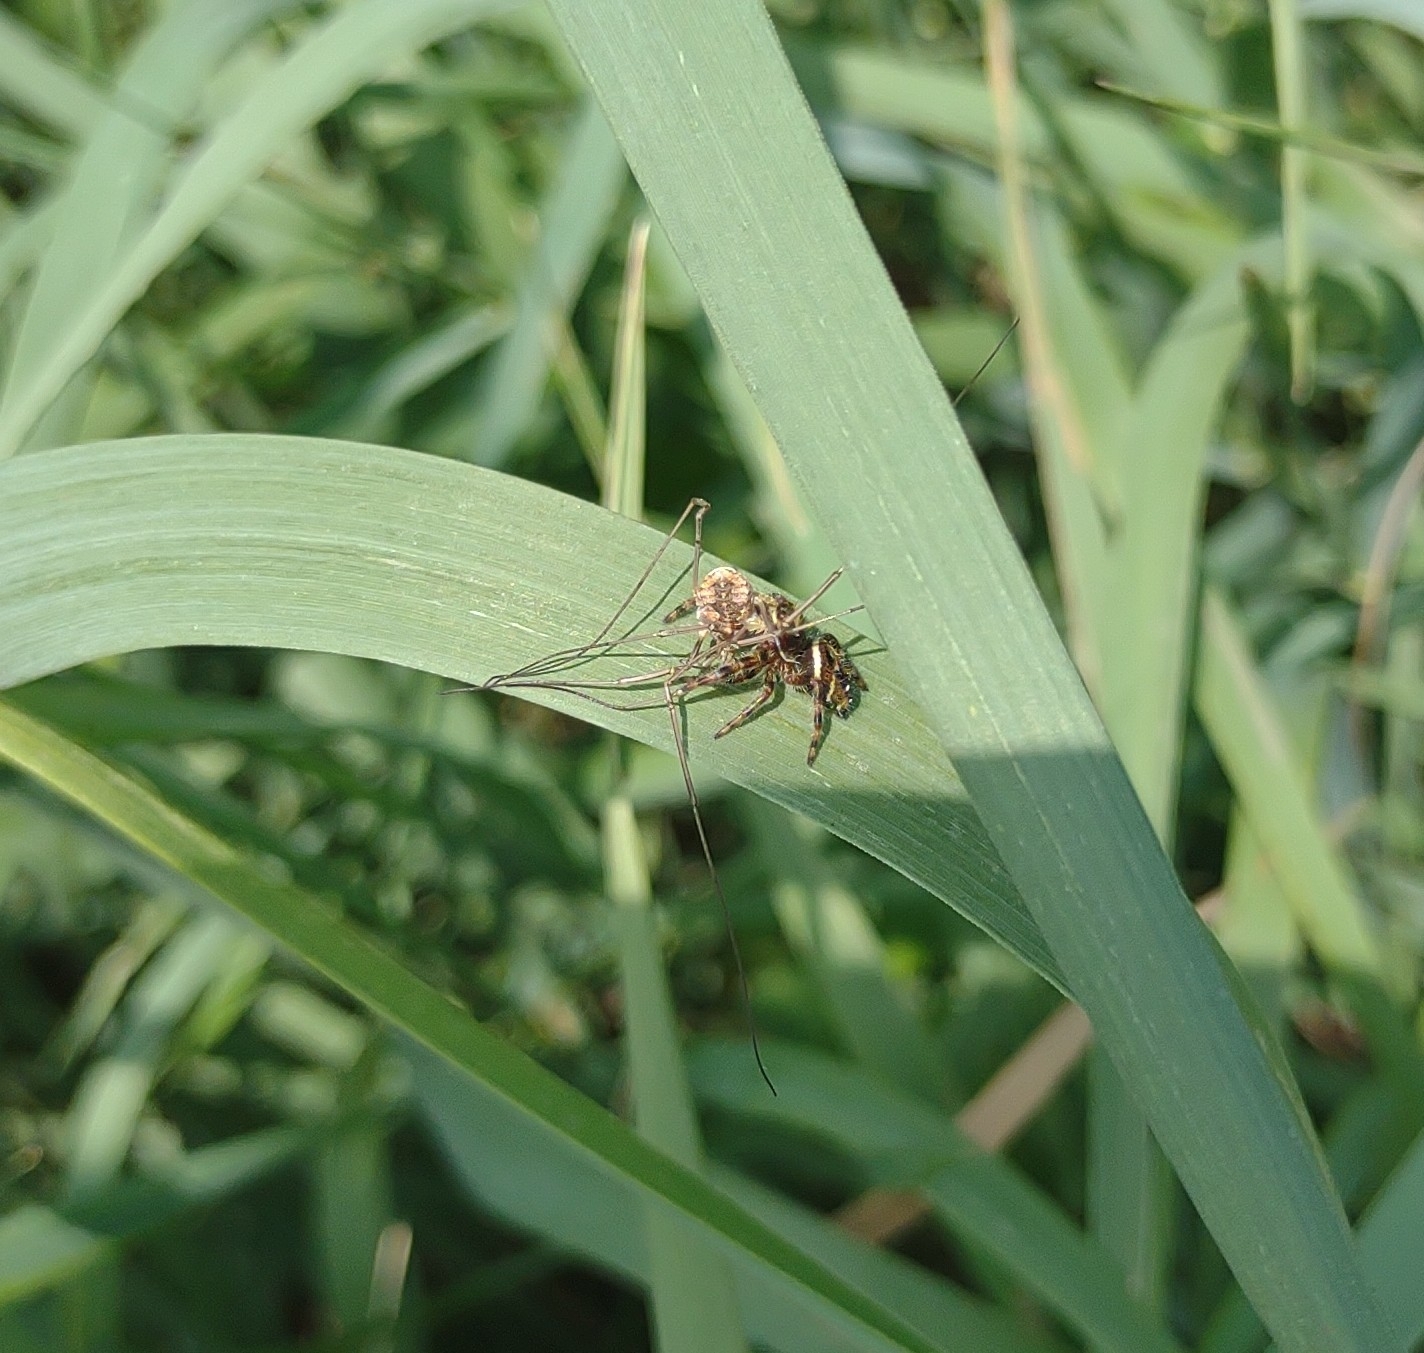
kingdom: Animalia
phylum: Arthropoda
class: Arachnida
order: Araneae
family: Salticidae
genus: Phidippus
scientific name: Phidippus clarus
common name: Brilliant jumping spider
